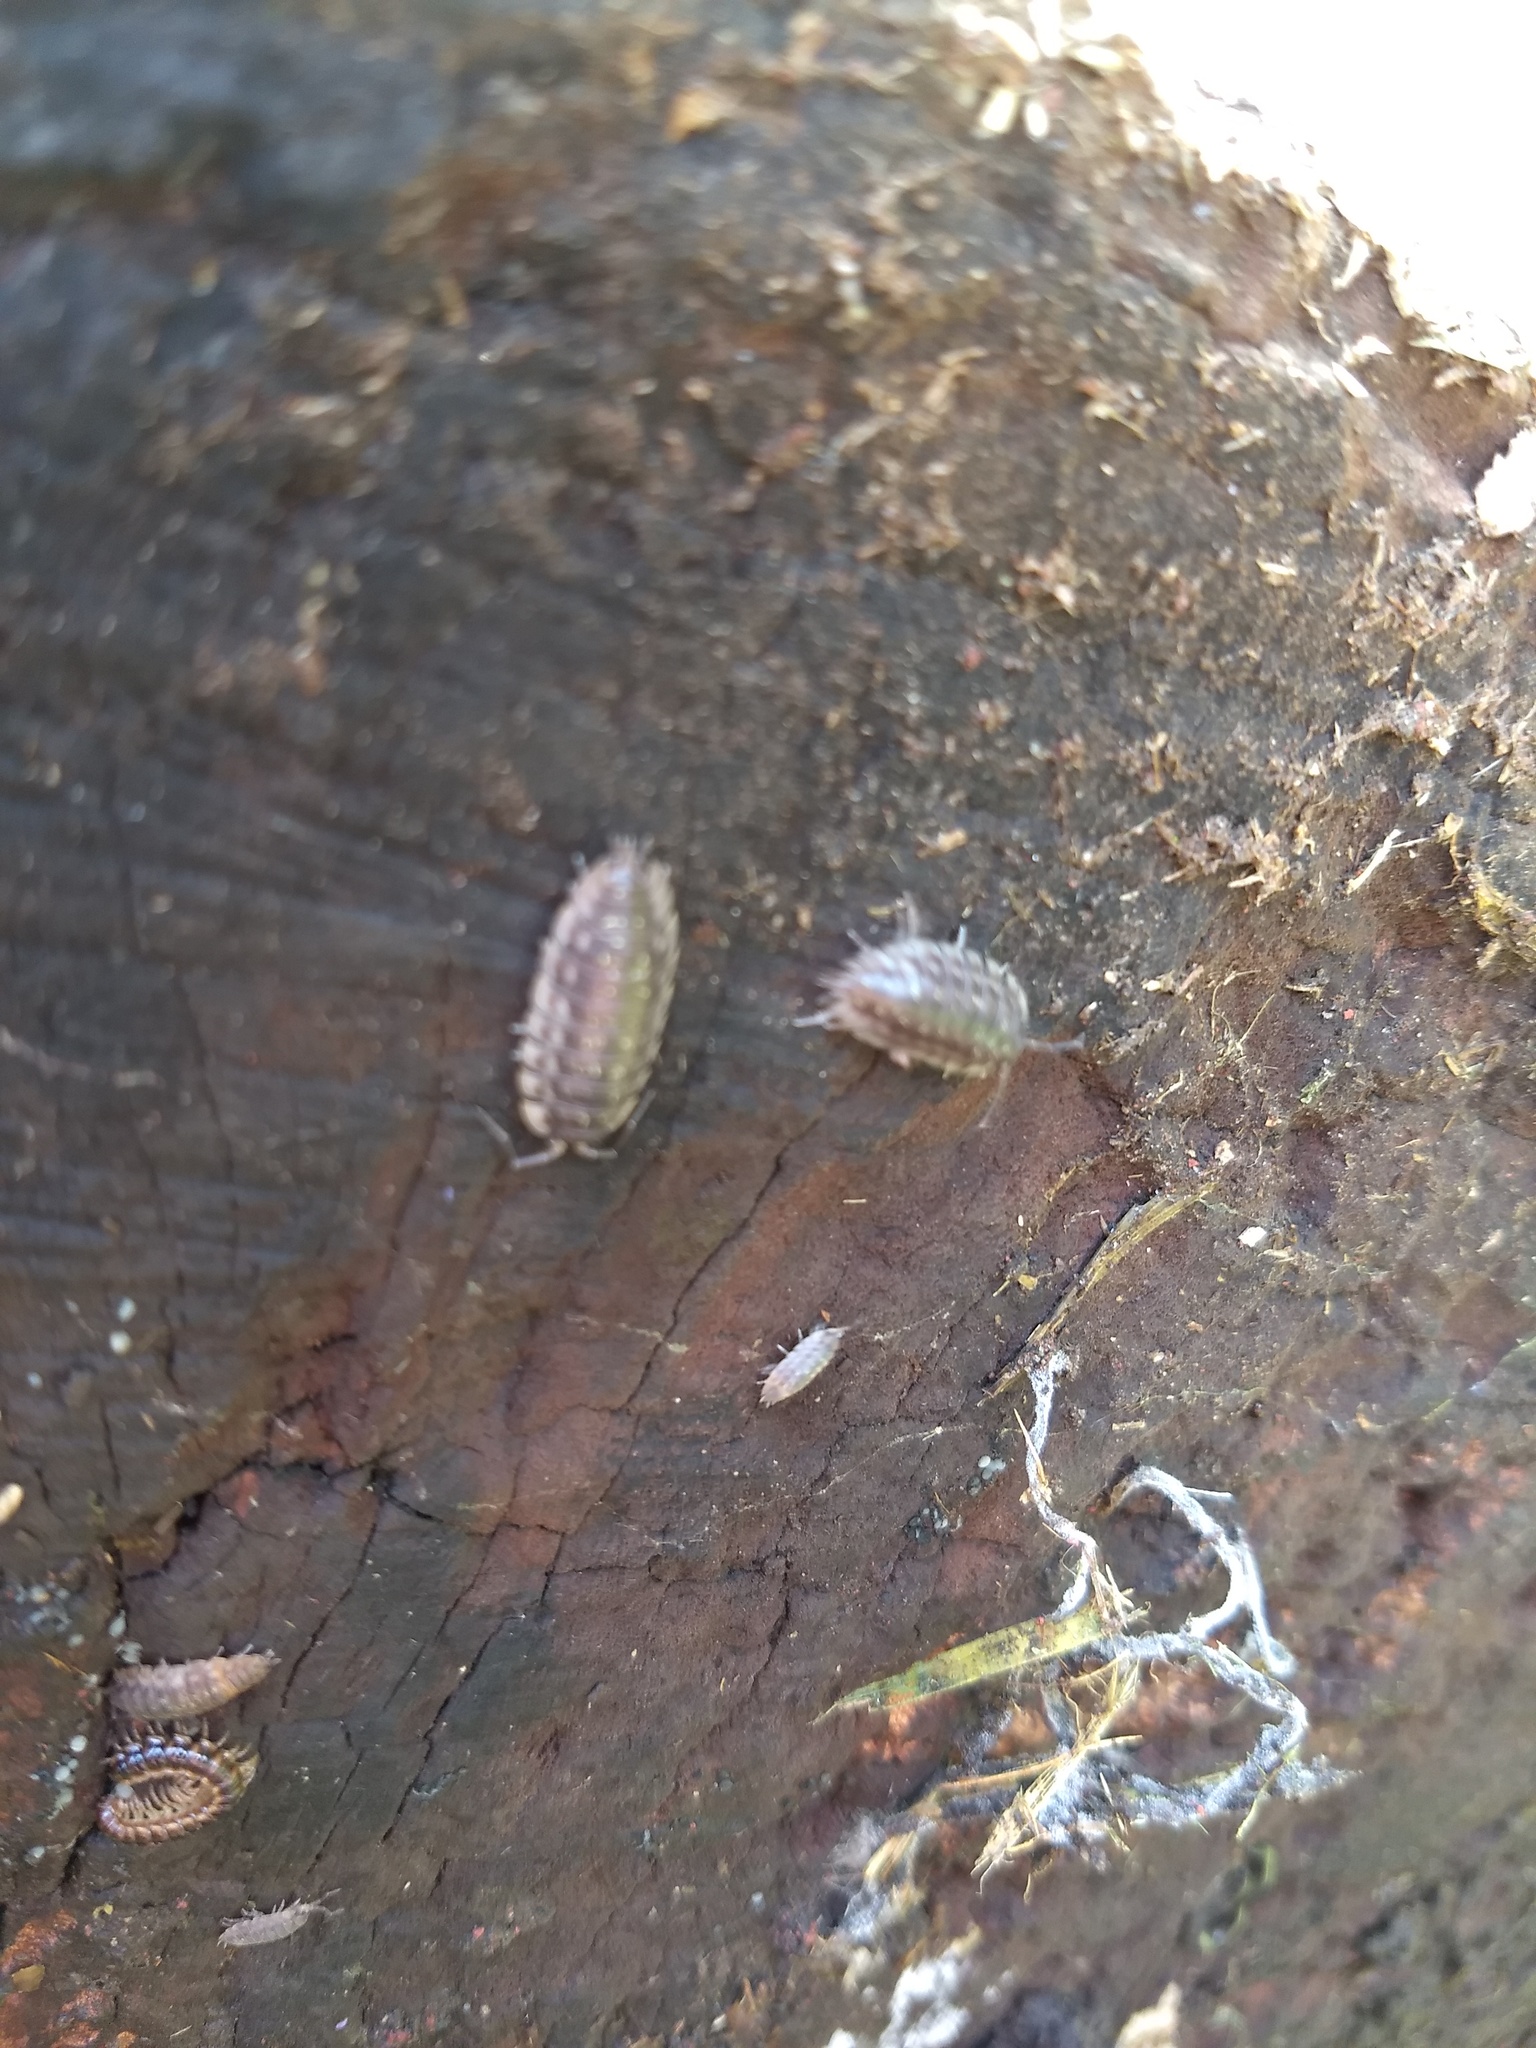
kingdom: Animalia
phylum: Arthropoda
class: Malacostraca
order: Isopoda
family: Oniscidae
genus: Oniscus
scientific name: Oniscus asellus
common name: Common shiny woodlouse
